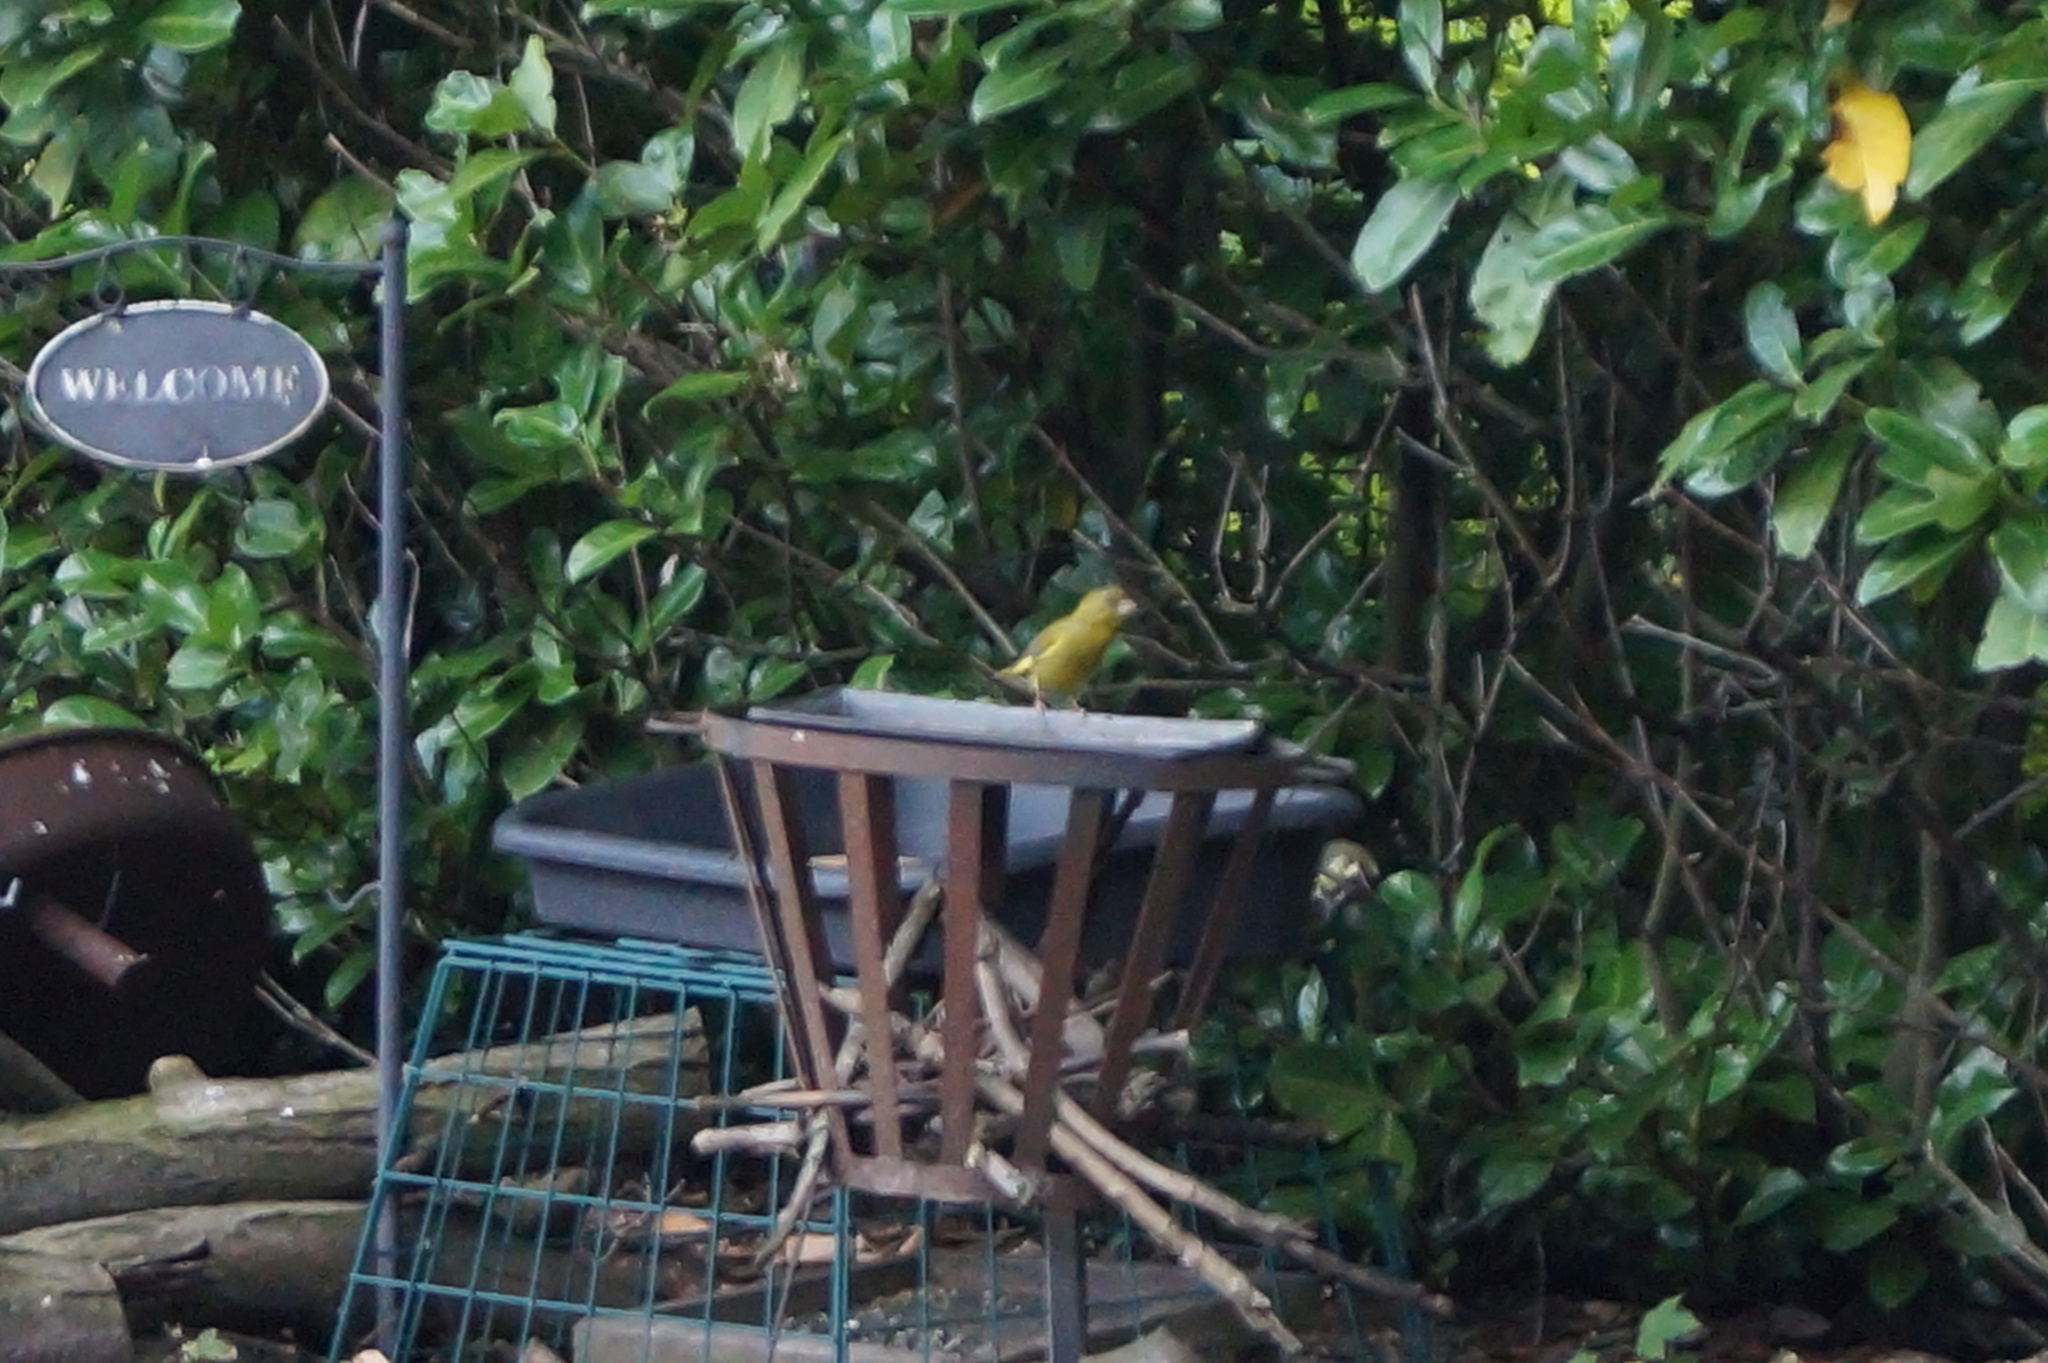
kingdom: Plantae
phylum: Tracheophyta
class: Liliopsida
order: Poales
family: Poaceae
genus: Chloris
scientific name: Chloris chloris
